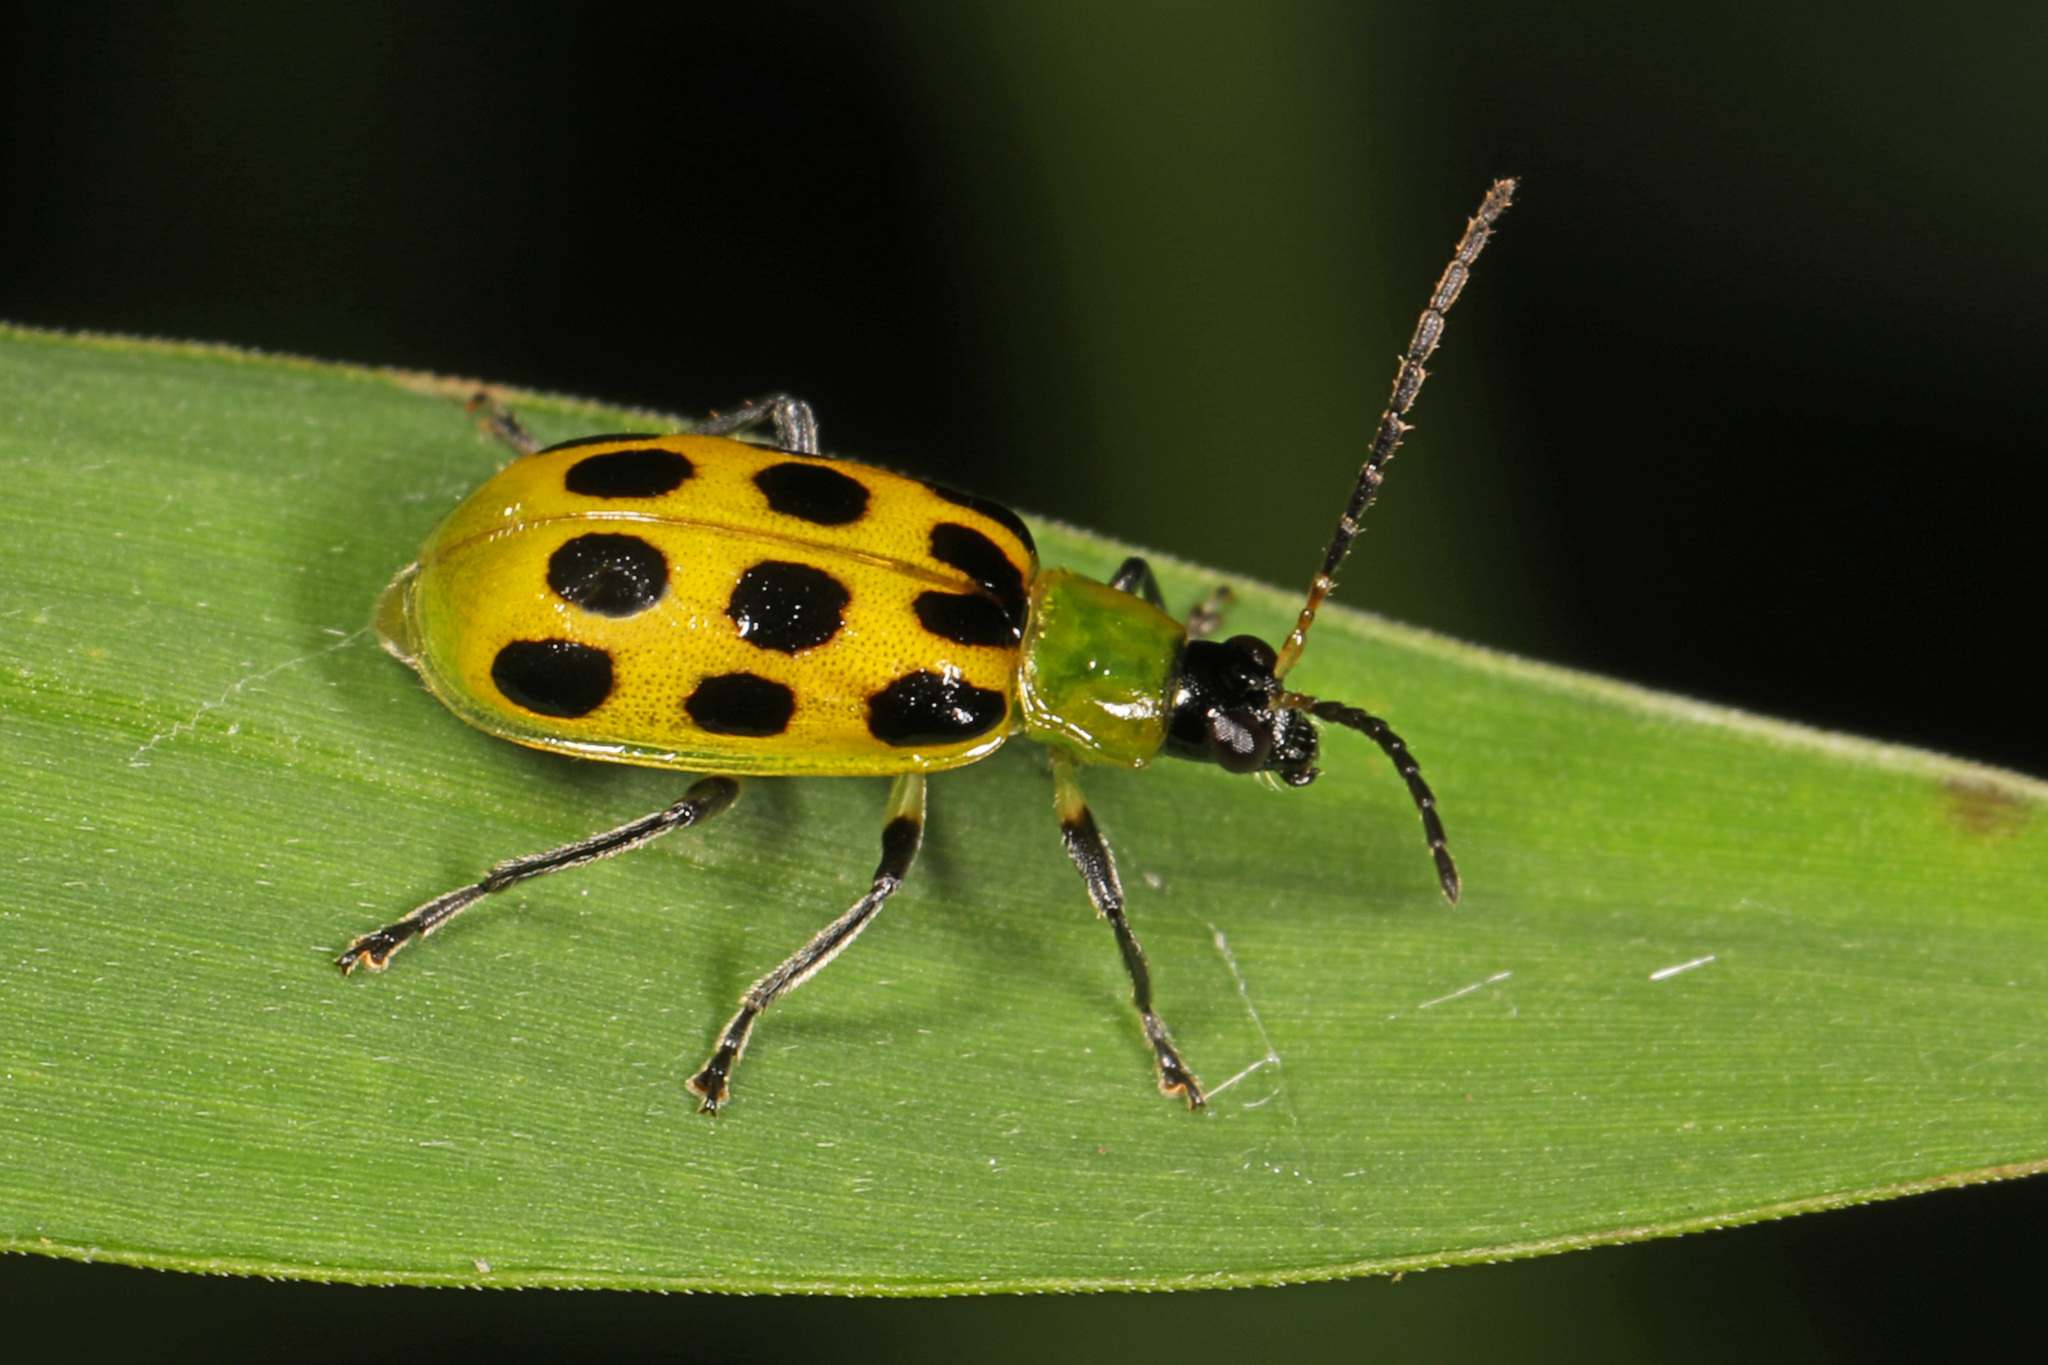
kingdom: Animalia
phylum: Arthropoda
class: Insecta
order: Coleoptera
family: Chrysomelidae
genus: Diabrotica
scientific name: Diabrotica undecimpunctata
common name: Spotted cucumber beetle
